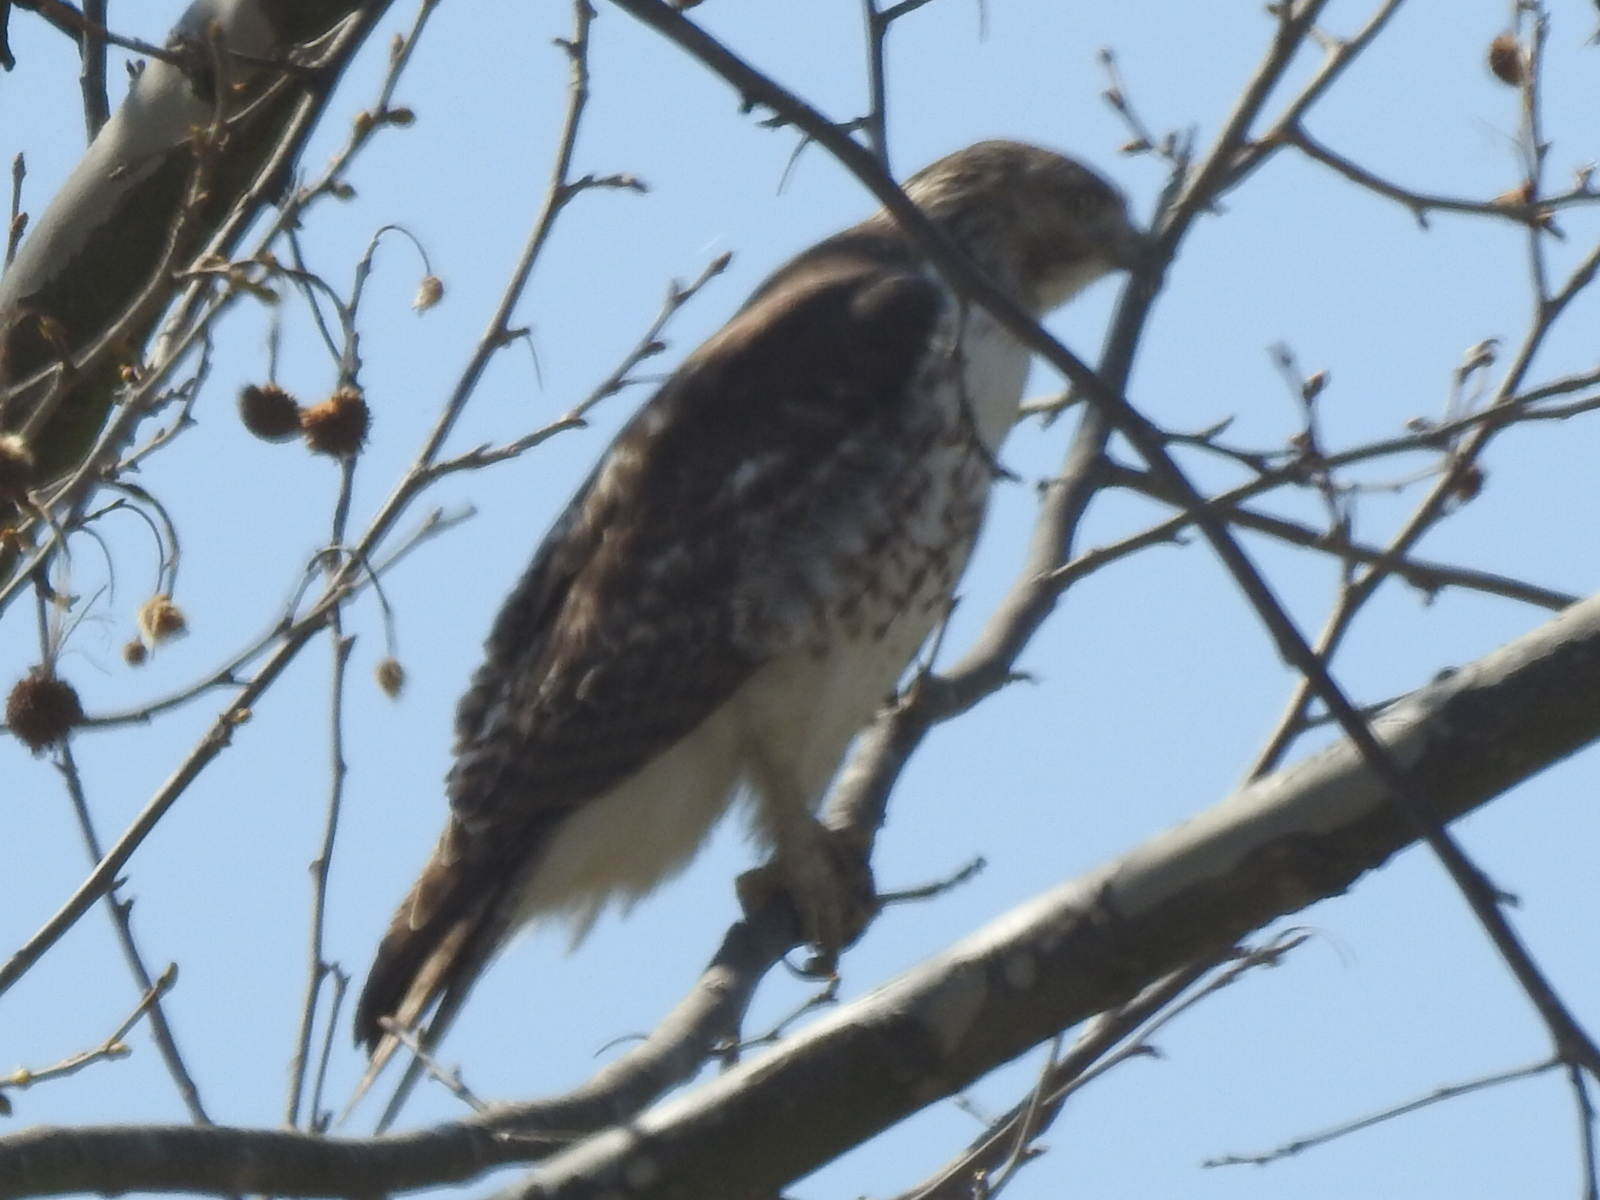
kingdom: Animalia
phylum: Chordata
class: Aves
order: Accipitriformes
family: Accipitridae
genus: Buteo
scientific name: Buteo jamaicensis
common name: Red-tailed hawk
